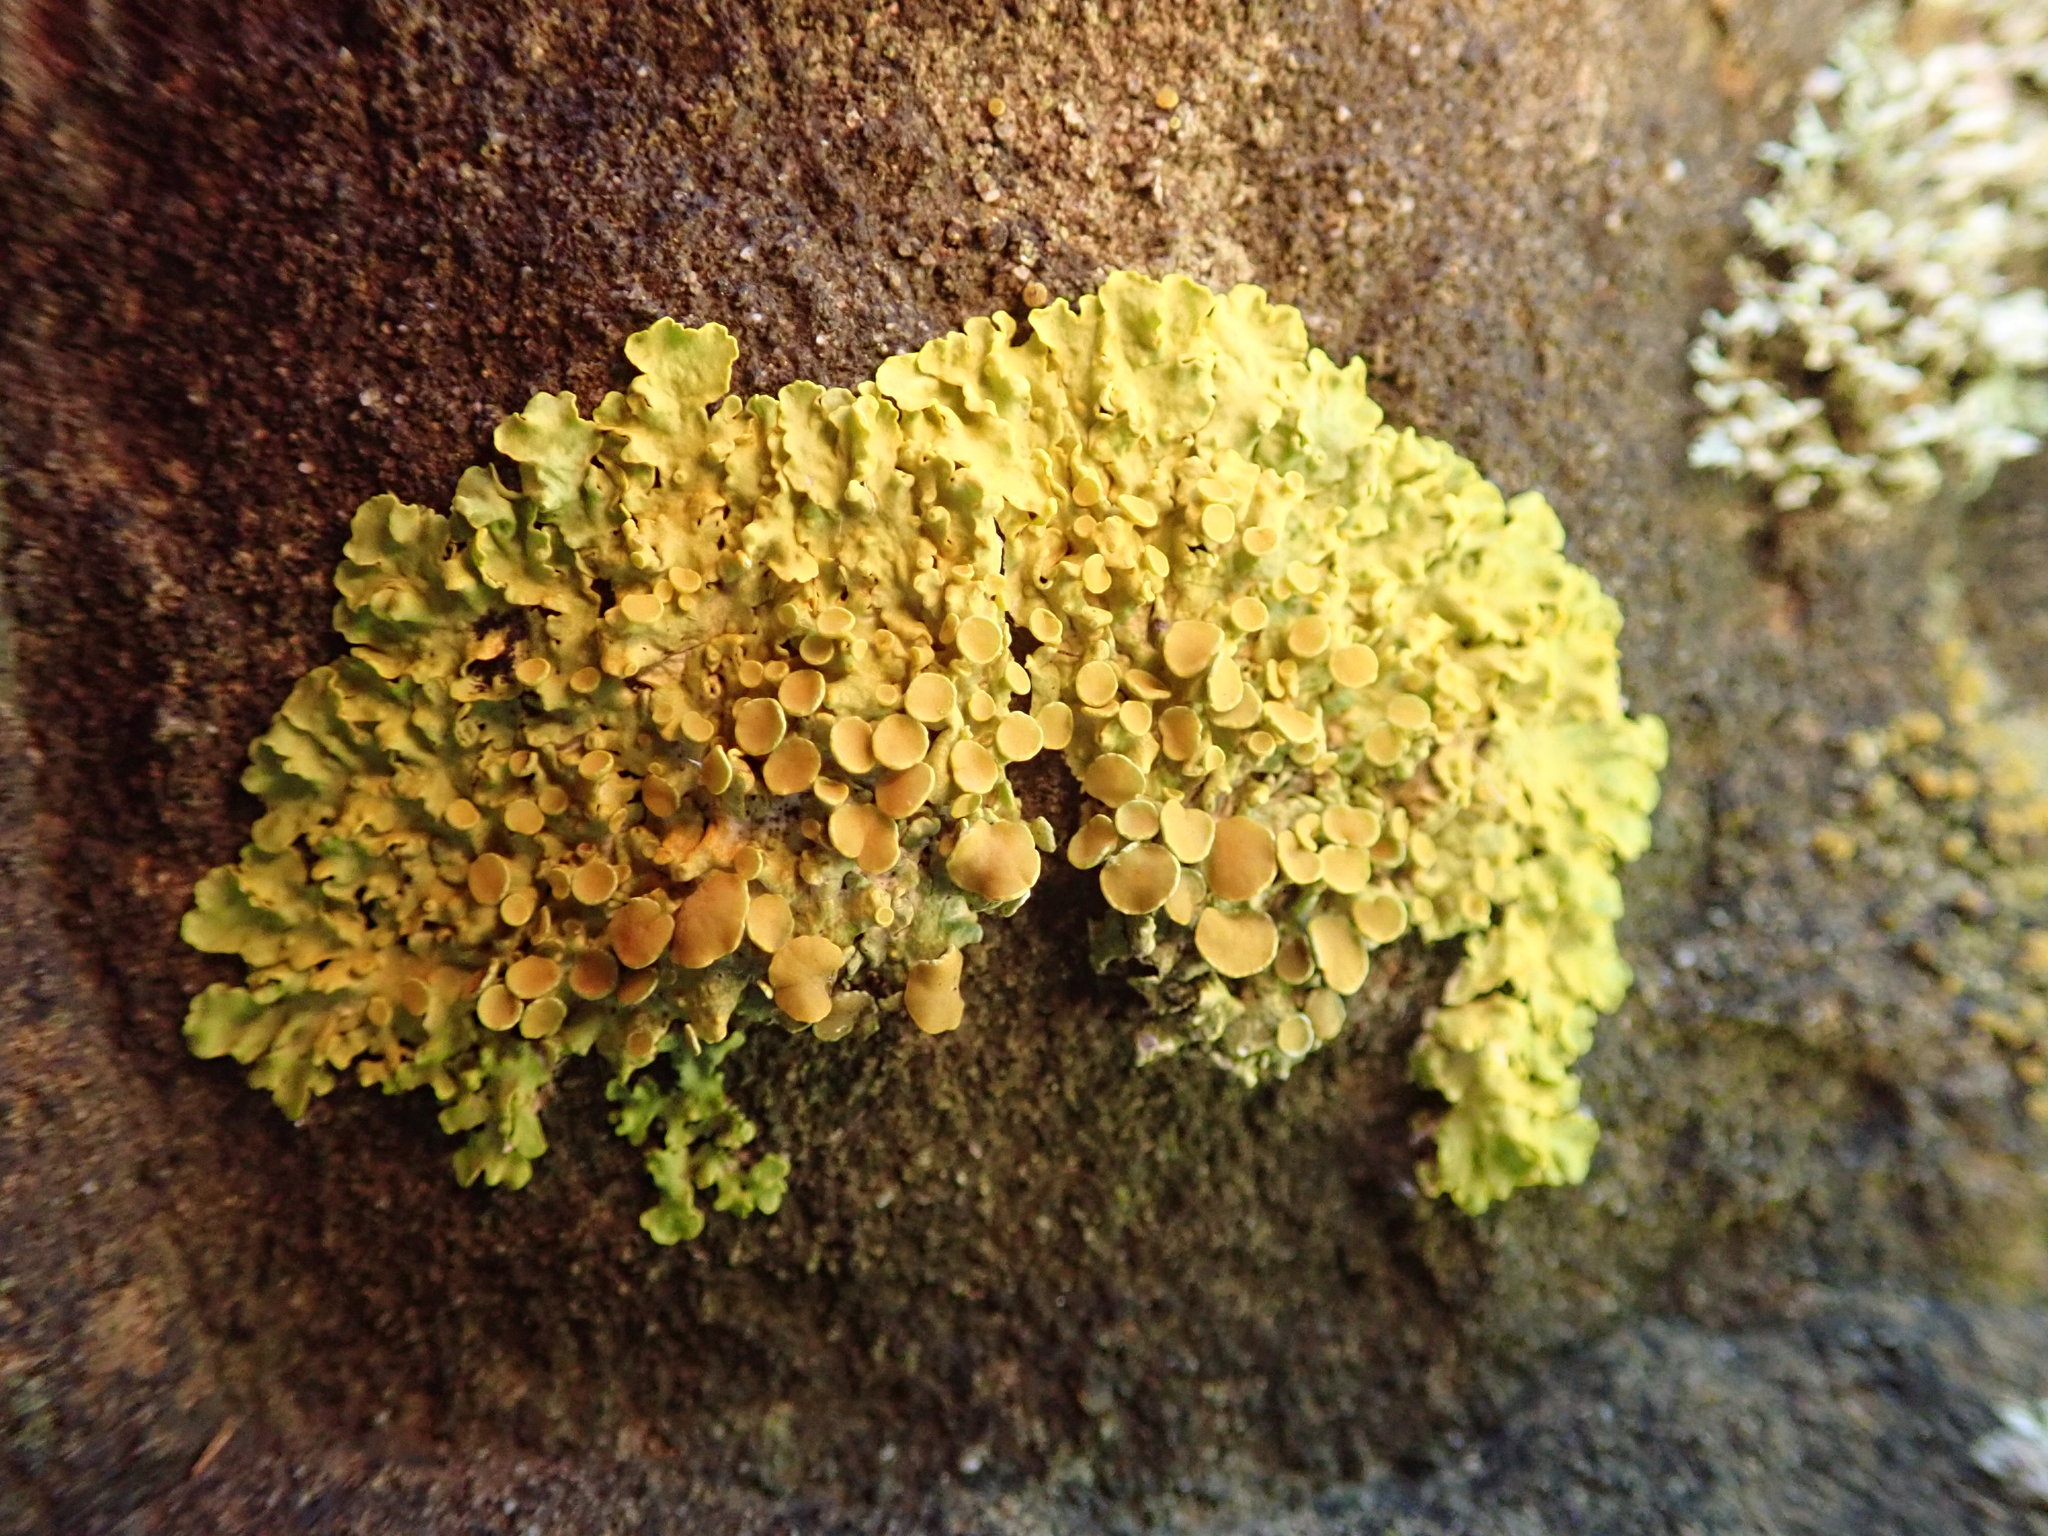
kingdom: Fungi
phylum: Ascomycota
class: Lecanoromycetes
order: Teloschistales
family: Teloschistaceae
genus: Xanthoria
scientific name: Xanthoria parietina
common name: Common orange lichen
